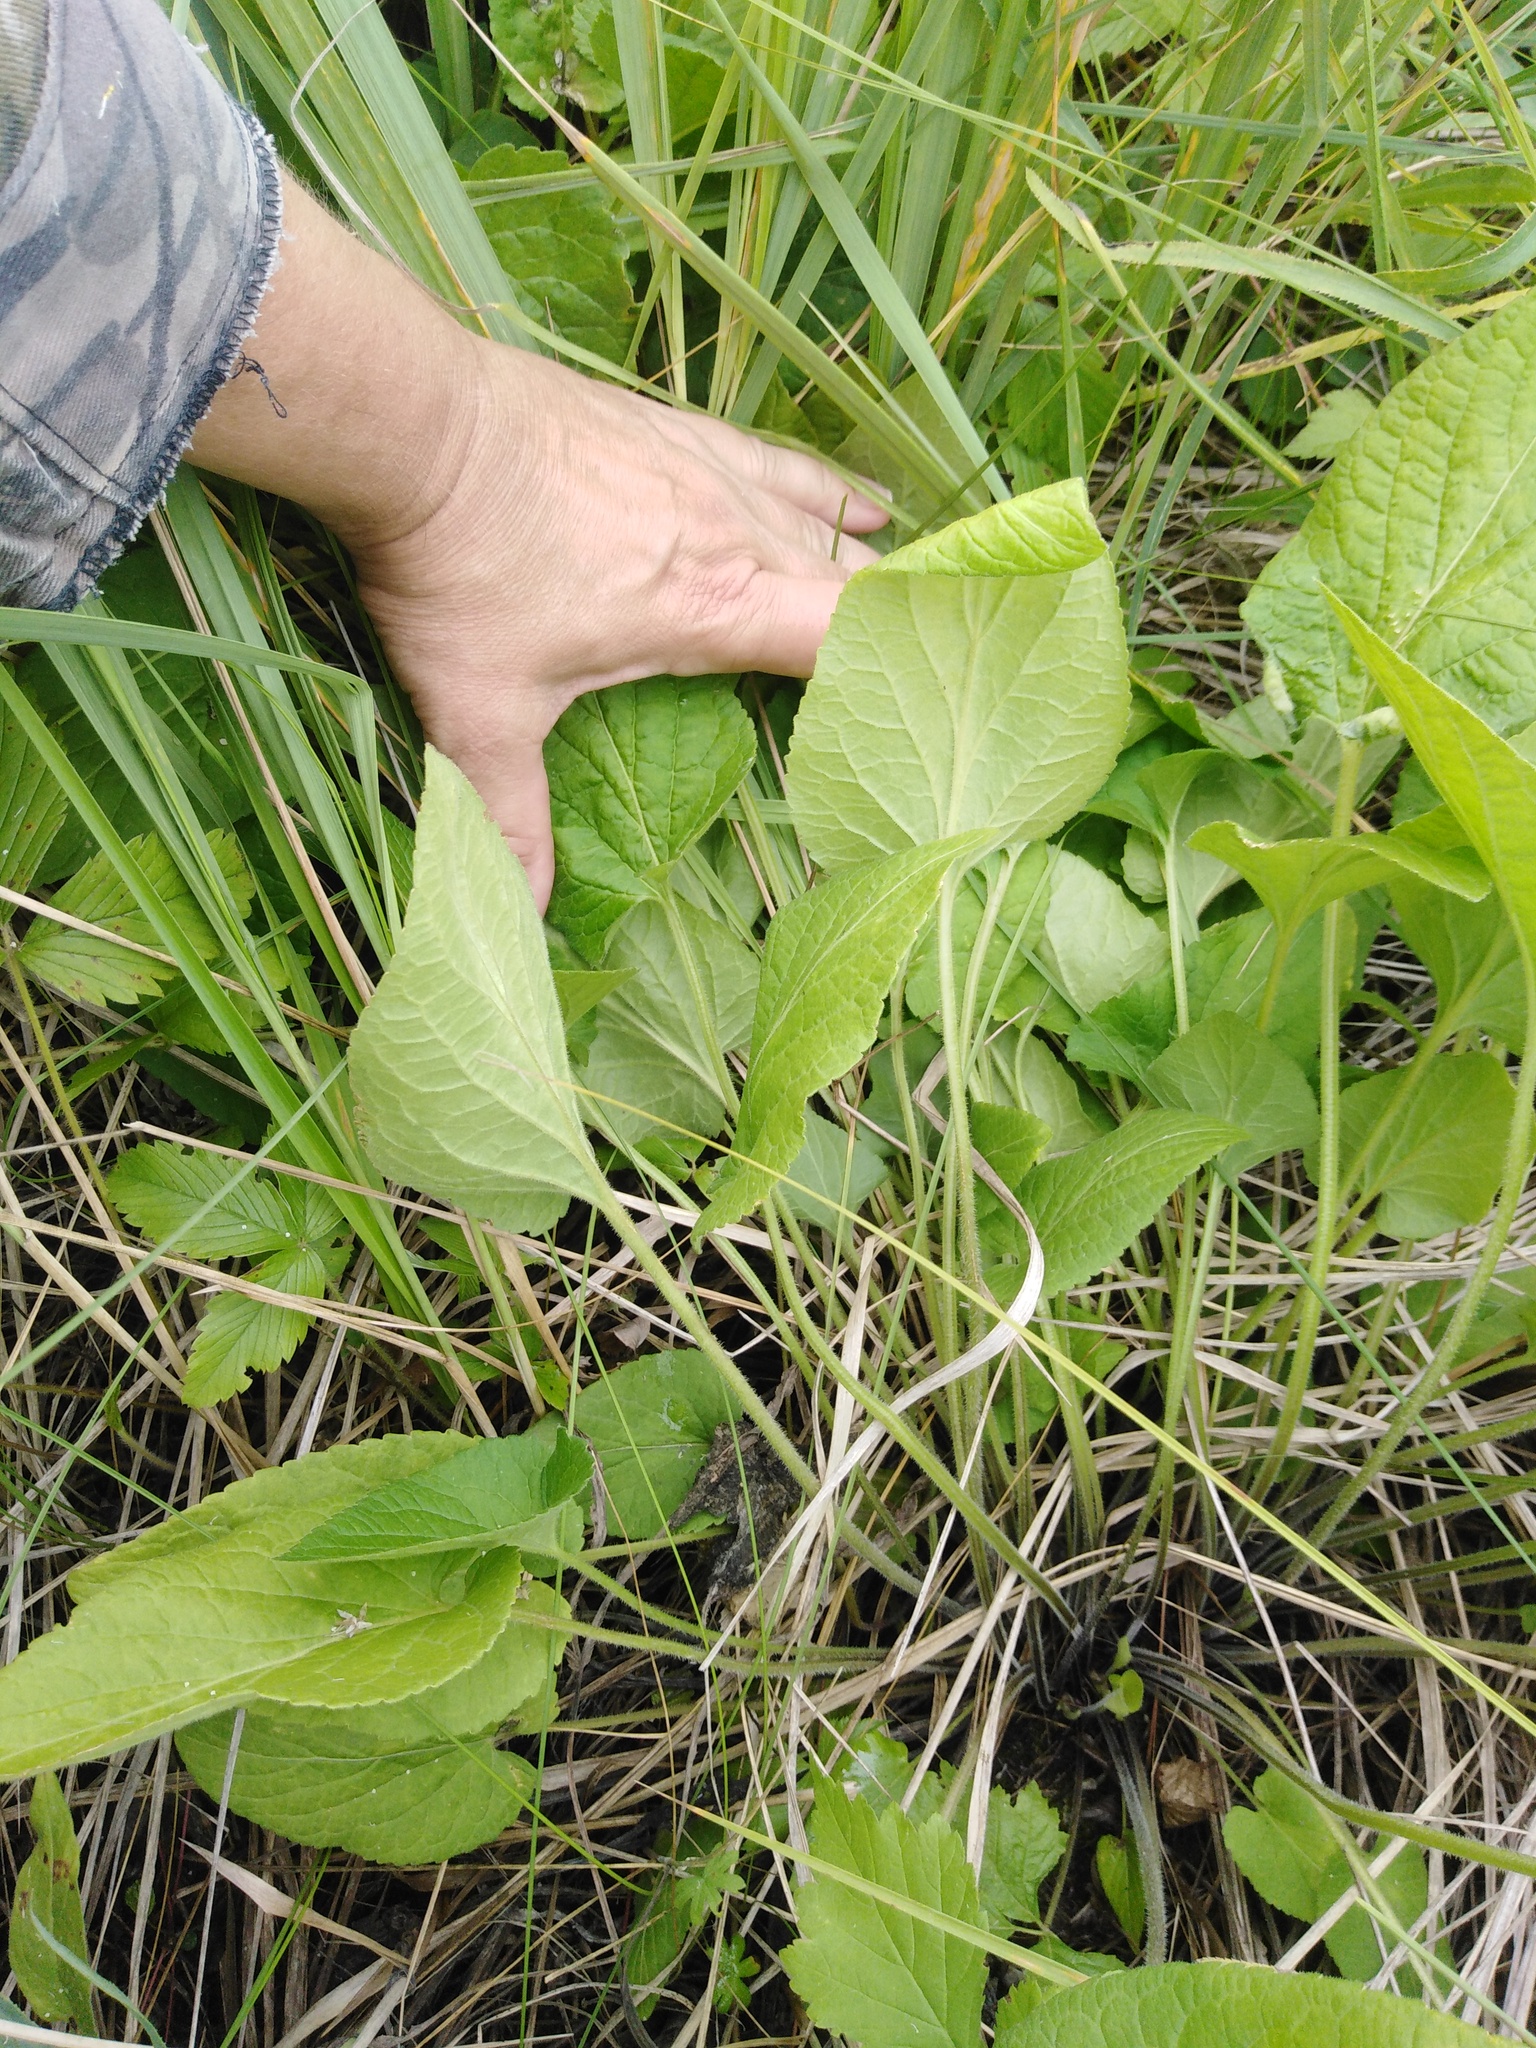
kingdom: Plantae
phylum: Tracheophyta
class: Magnoliopsida
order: Malpighiales
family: Violaceae
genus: Viola
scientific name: Viola hirta
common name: Hairy violet
